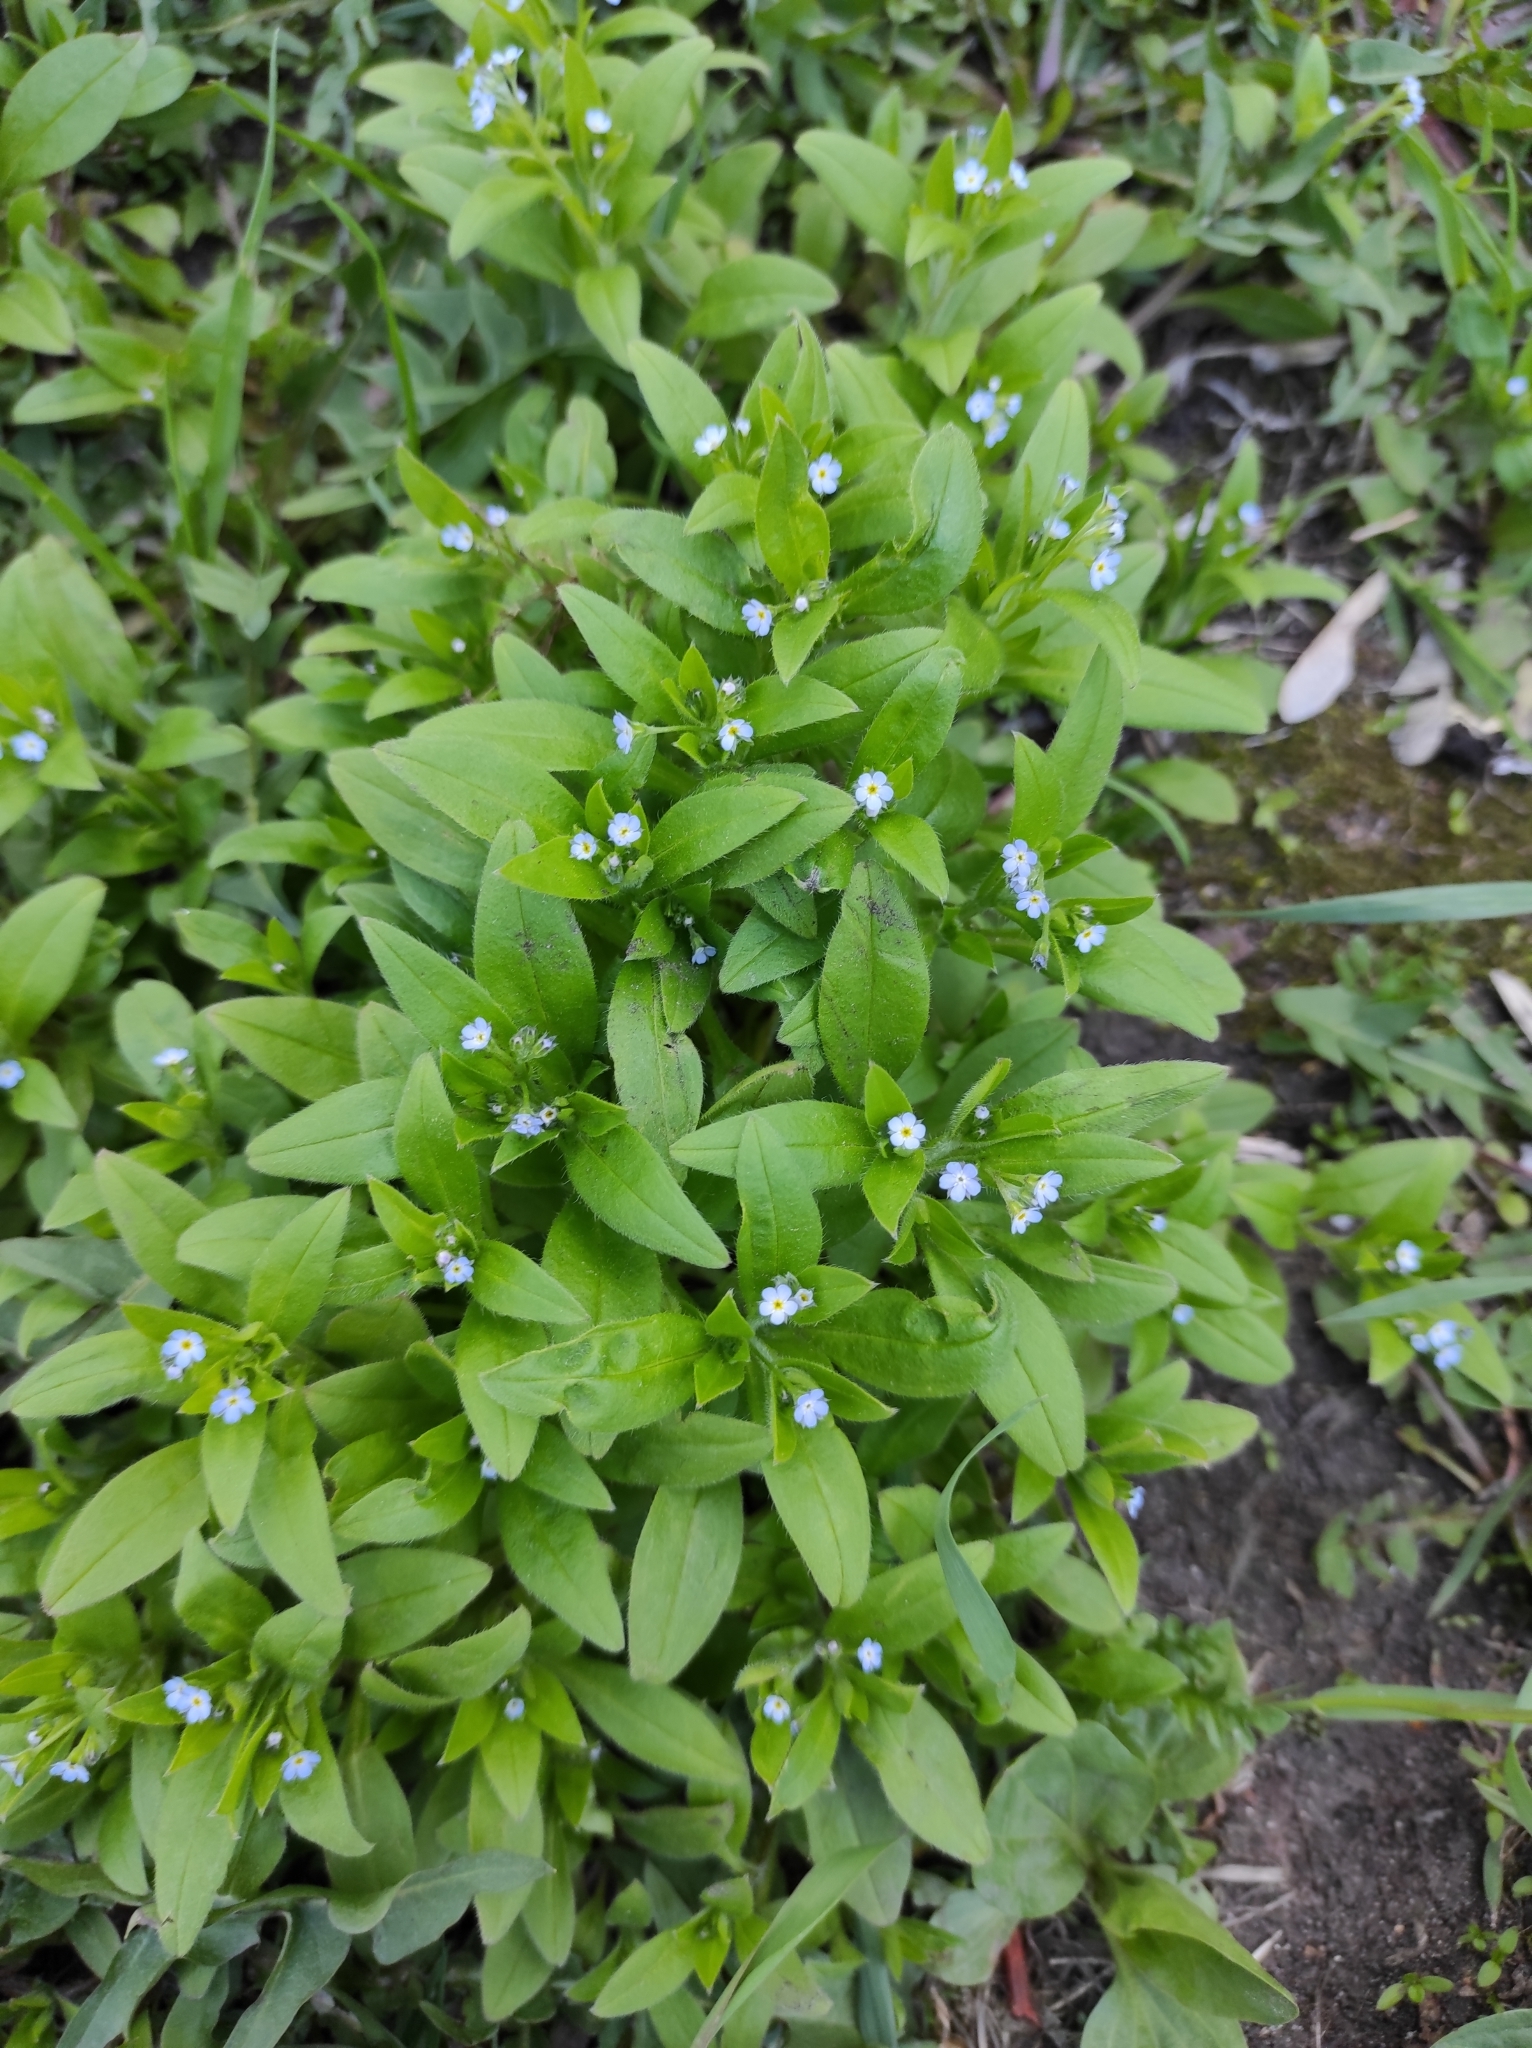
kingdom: Plantae
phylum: Tracheophyta
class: Magnoliopsida
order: Boraginales
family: Boraginaceae
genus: Myosotis
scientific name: Myosotis sparsiflora
